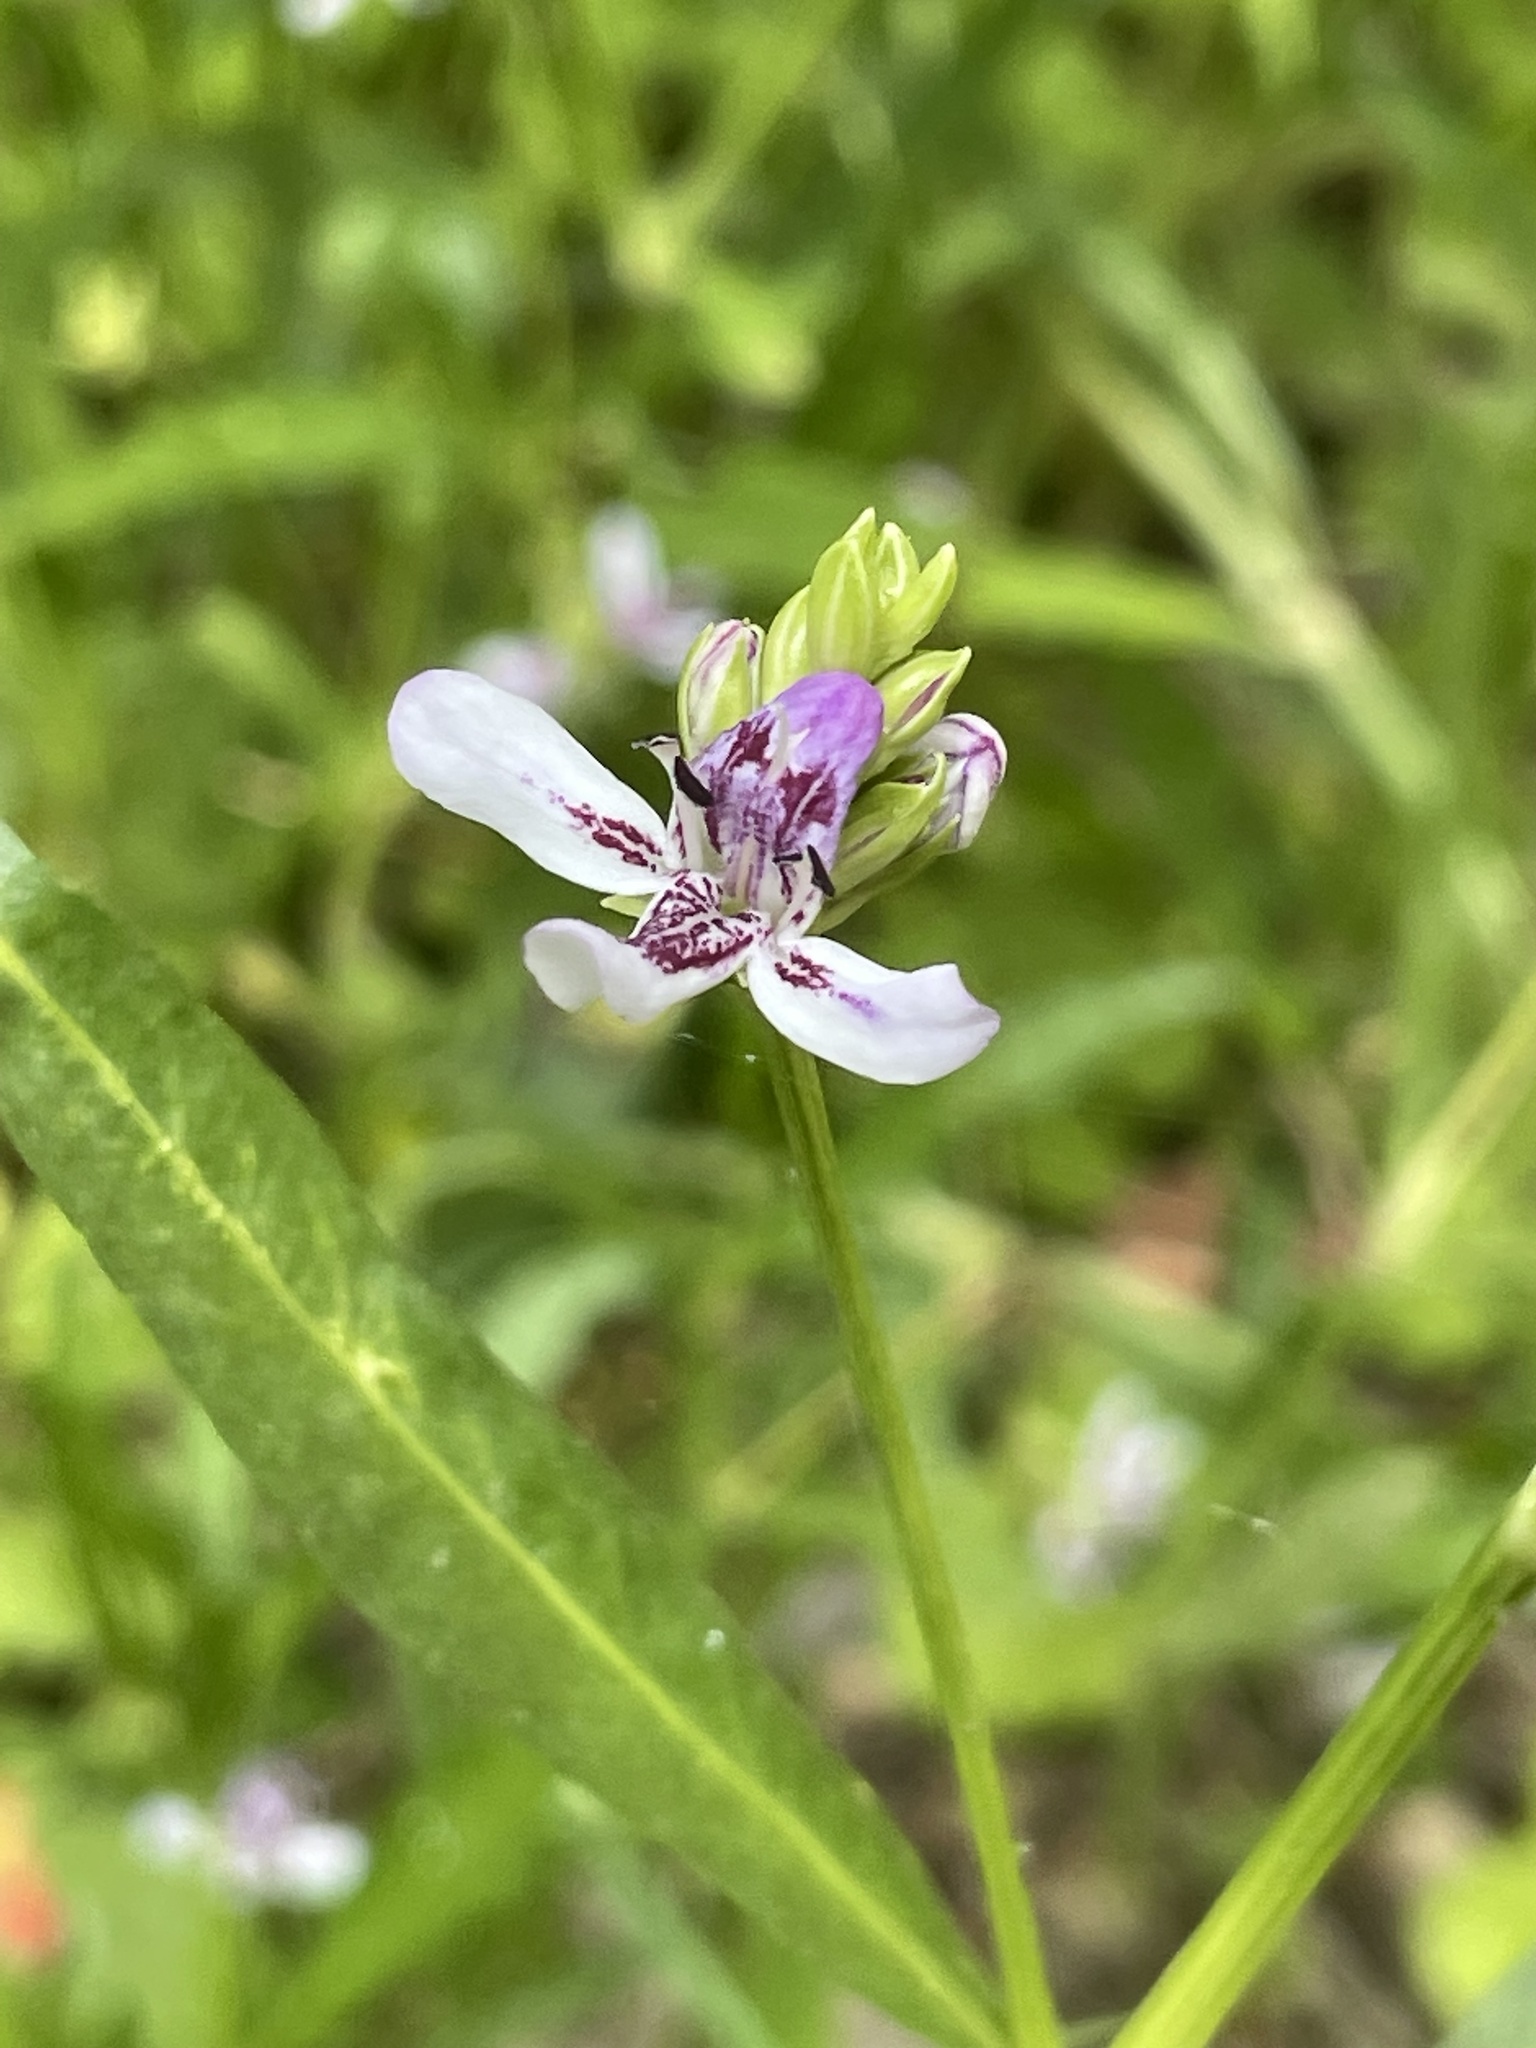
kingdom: Plantae
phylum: Tracheophyta
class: Magnoliopsida
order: Lamiales
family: Acanthaceae
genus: Dianthera
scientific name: Dianthera americana
